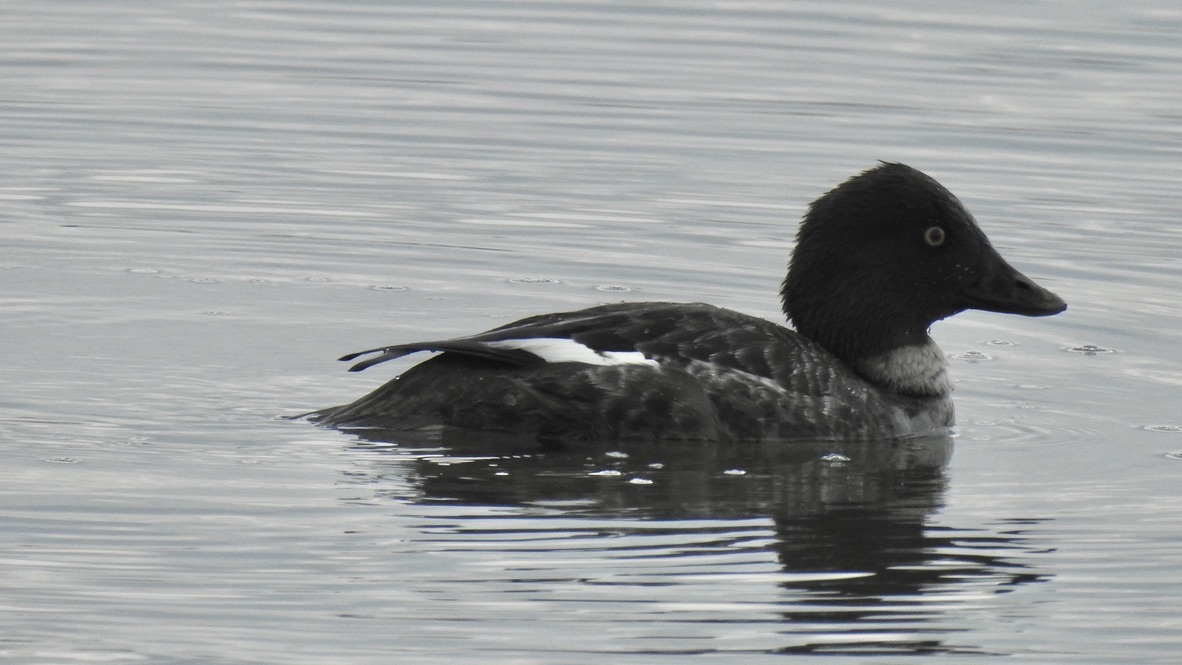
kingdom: Animalia
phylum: Chordata
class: Aves
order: Anseriformes
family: Anatidae
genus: Bucephala
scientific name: Bucephala clangula
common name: Common goldeneye
